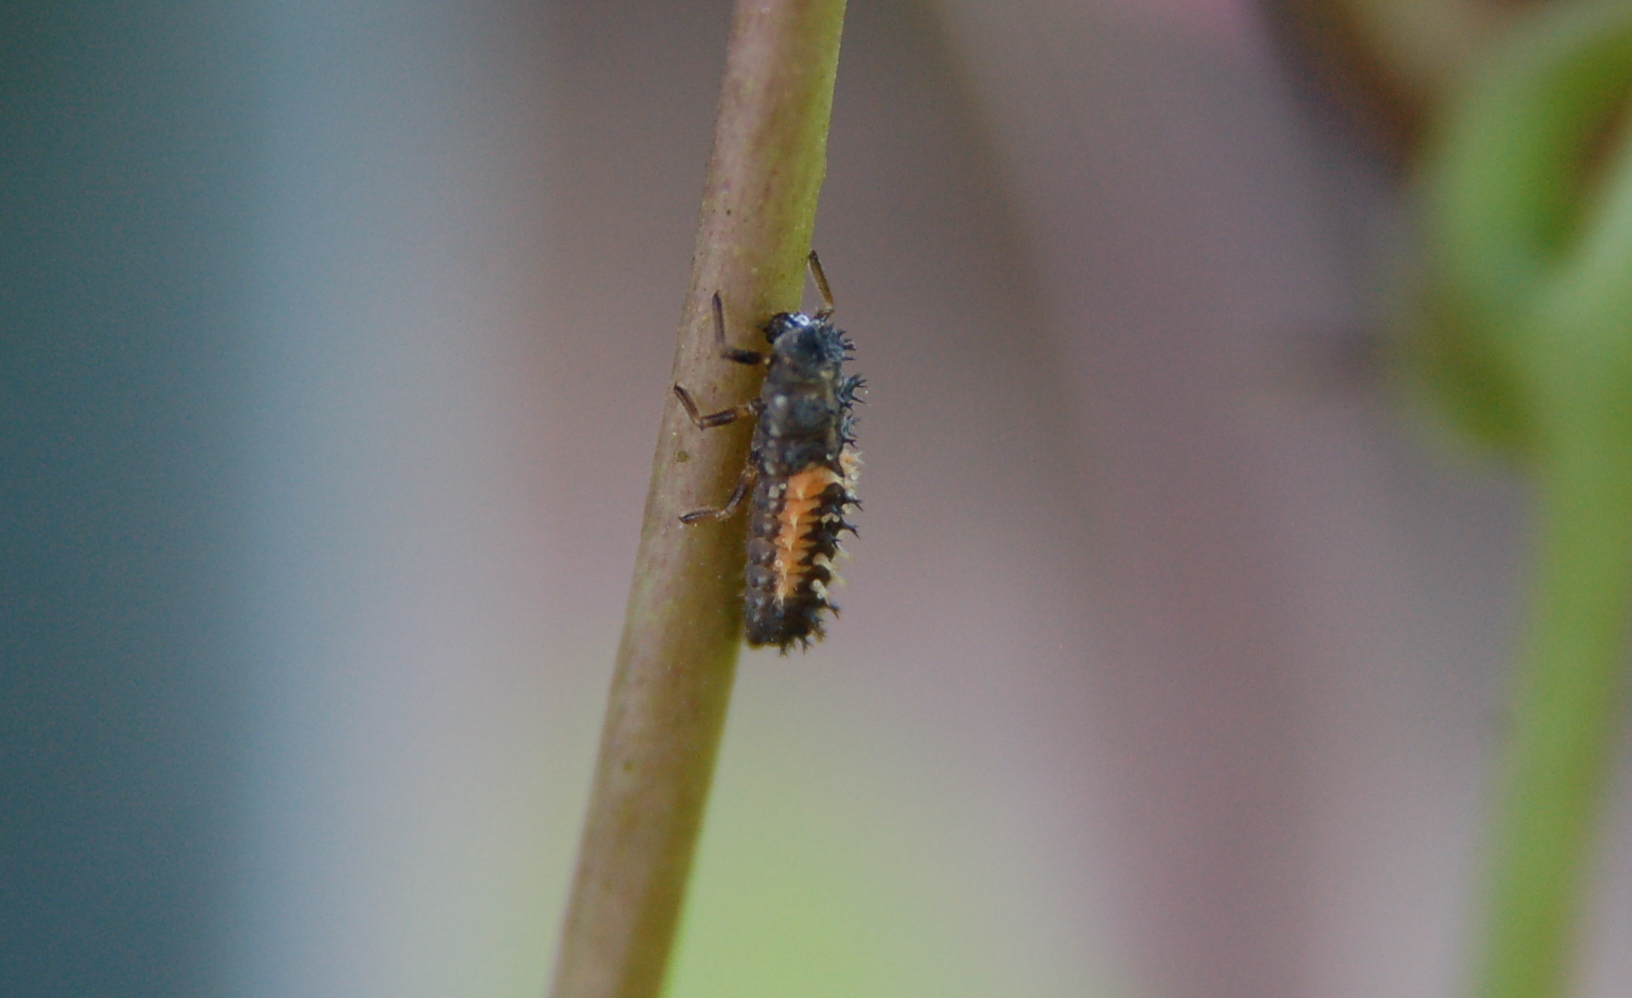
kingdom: Animalia
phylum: Arthropoda
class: Insecta
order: Coleoptera
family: Coccinellidae
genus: Harmonia
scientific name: Harmonia axyridis
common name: Harlequin ladybird
